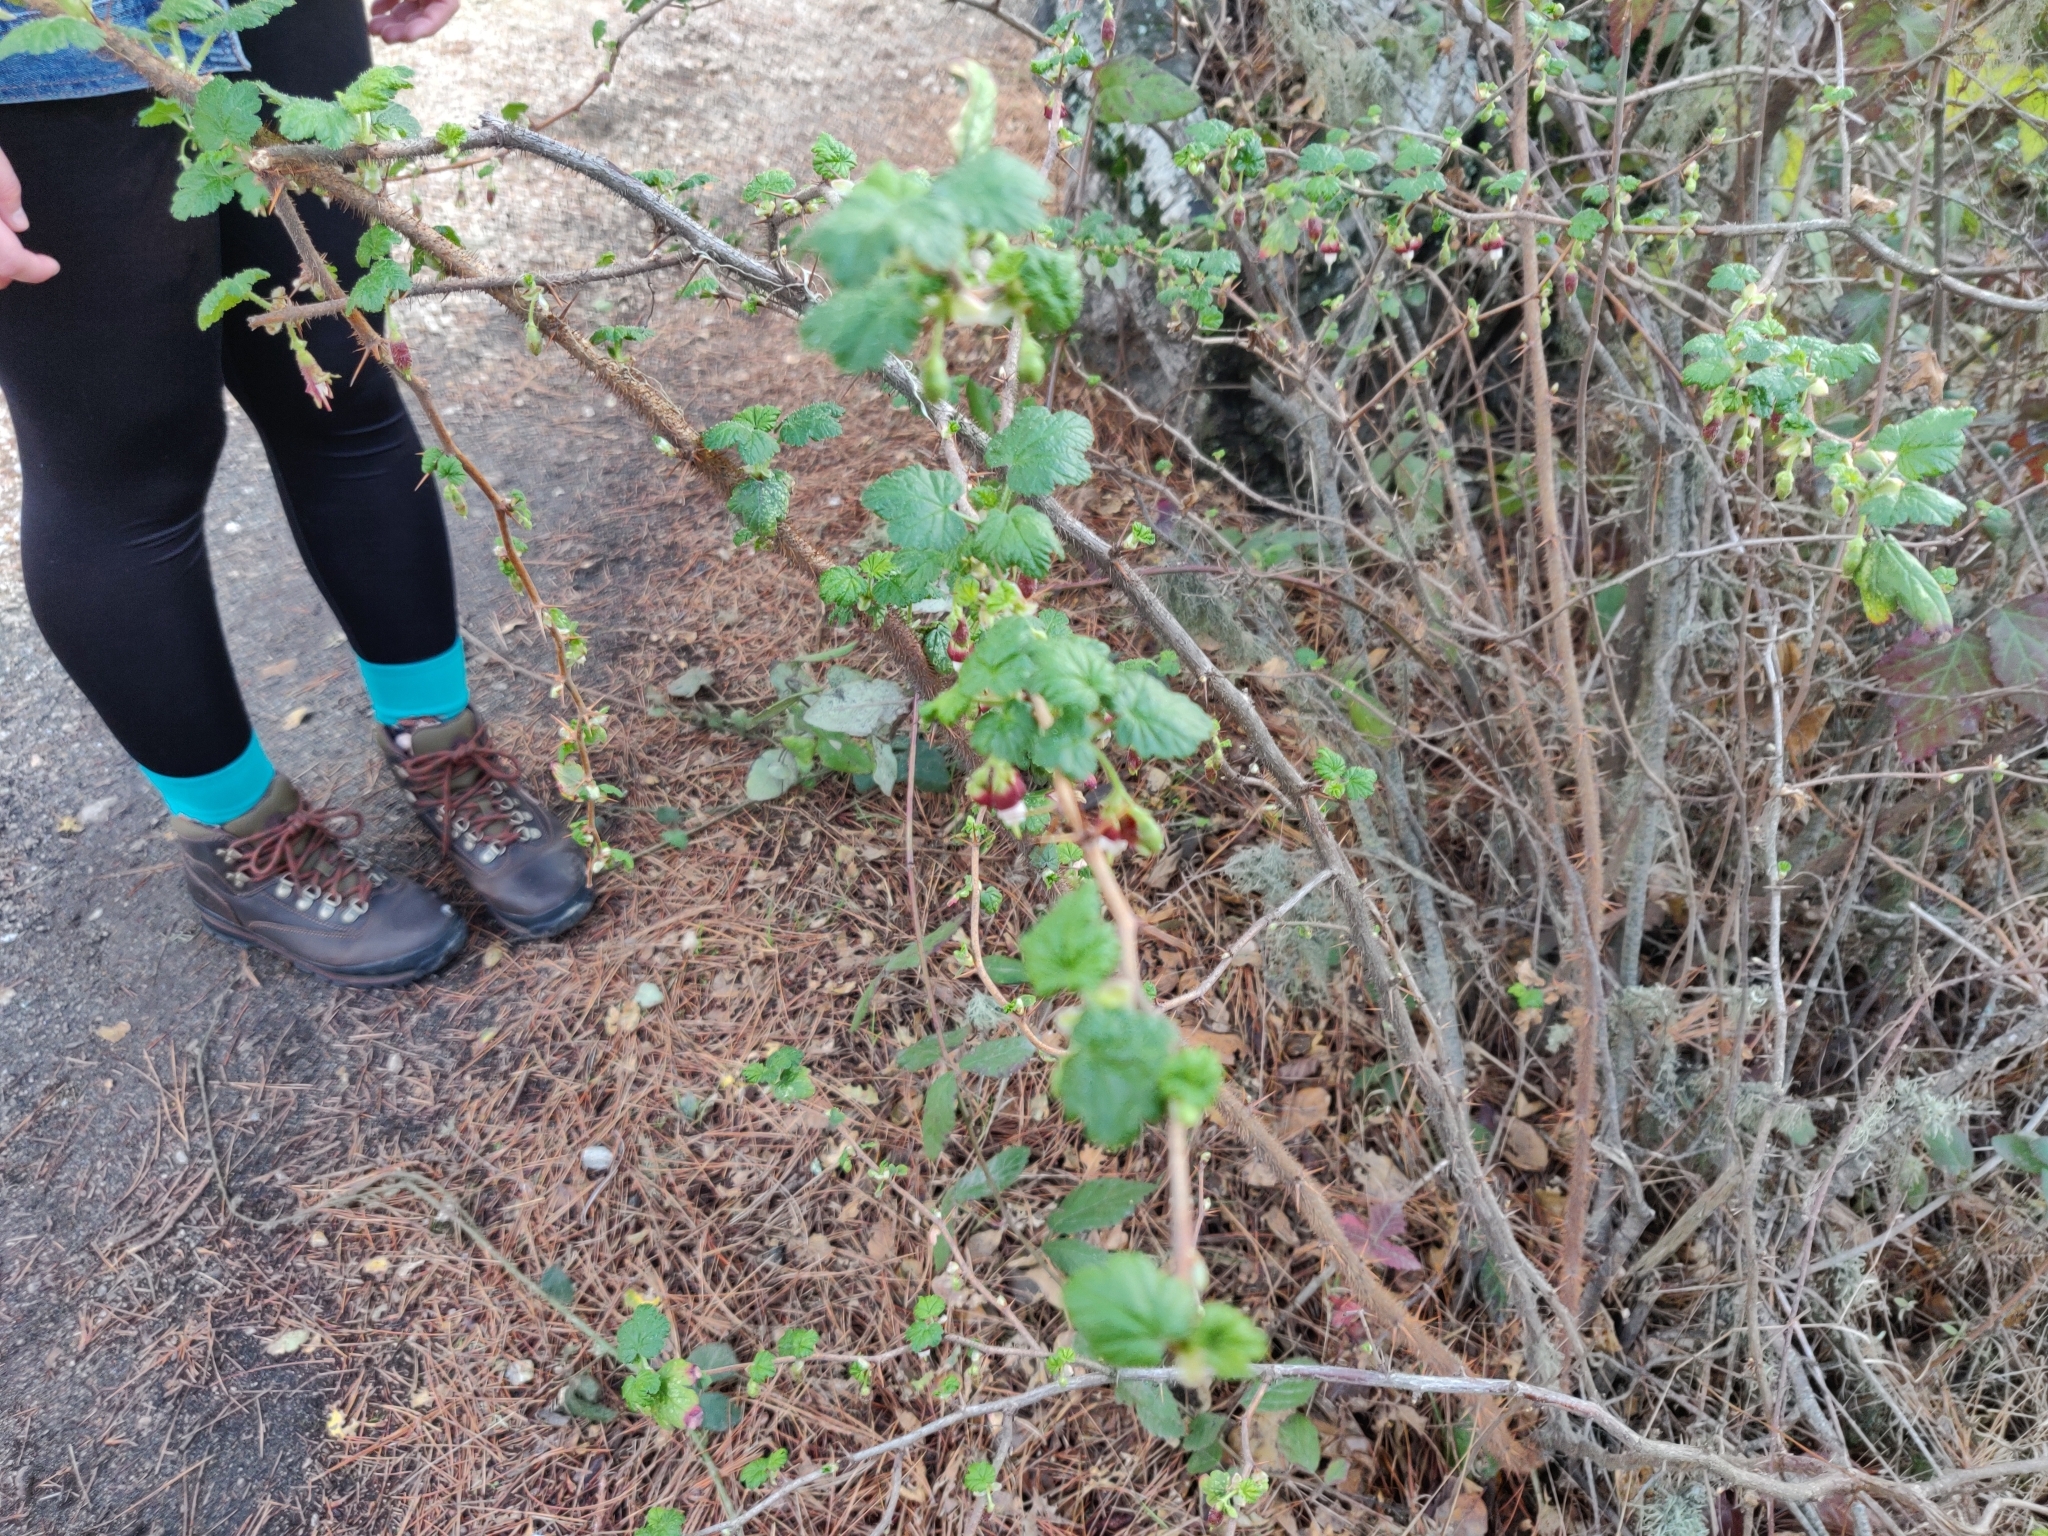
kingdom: Plantae
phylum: Tracheophyta
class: Magnoliopsida
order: Saxifragales
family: Grossulariaceae
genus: Ribes
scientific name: Ribes menziesii
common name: Canyon gooseberry
